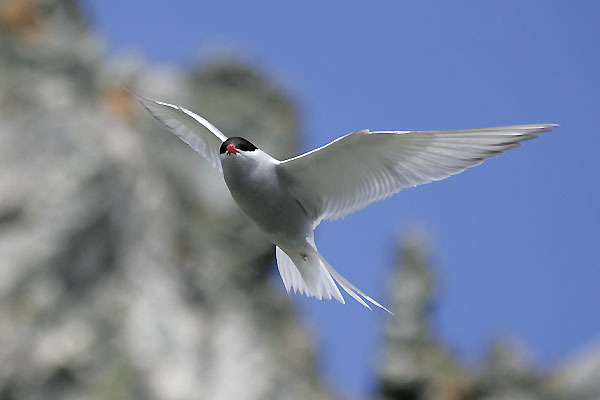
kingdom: Animalia
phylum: Chordata
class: Aves
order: Charadriiformes
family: Laridae
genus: Sterna
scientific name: Sterna vittata
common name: Antarctic tern
